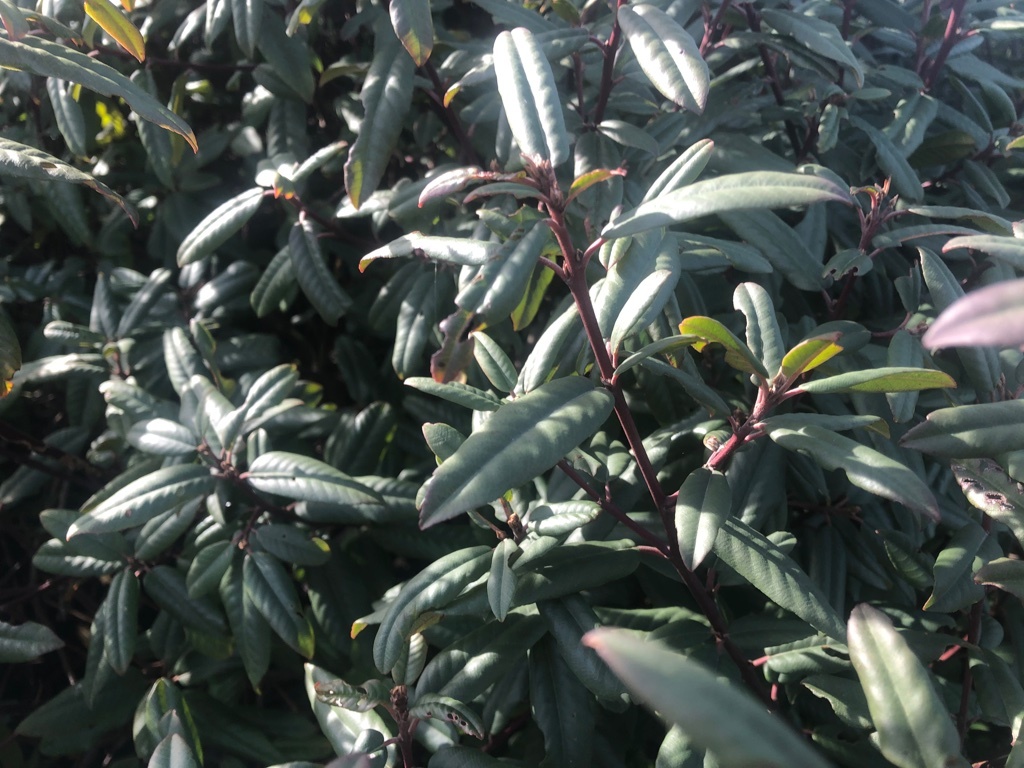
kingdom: Plantae
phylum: Tracheophyta
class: Magnoliopsida
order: Rosales
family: Rhamnaceae
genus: Frangula
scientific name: Frangula californica
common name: California buckthorn
